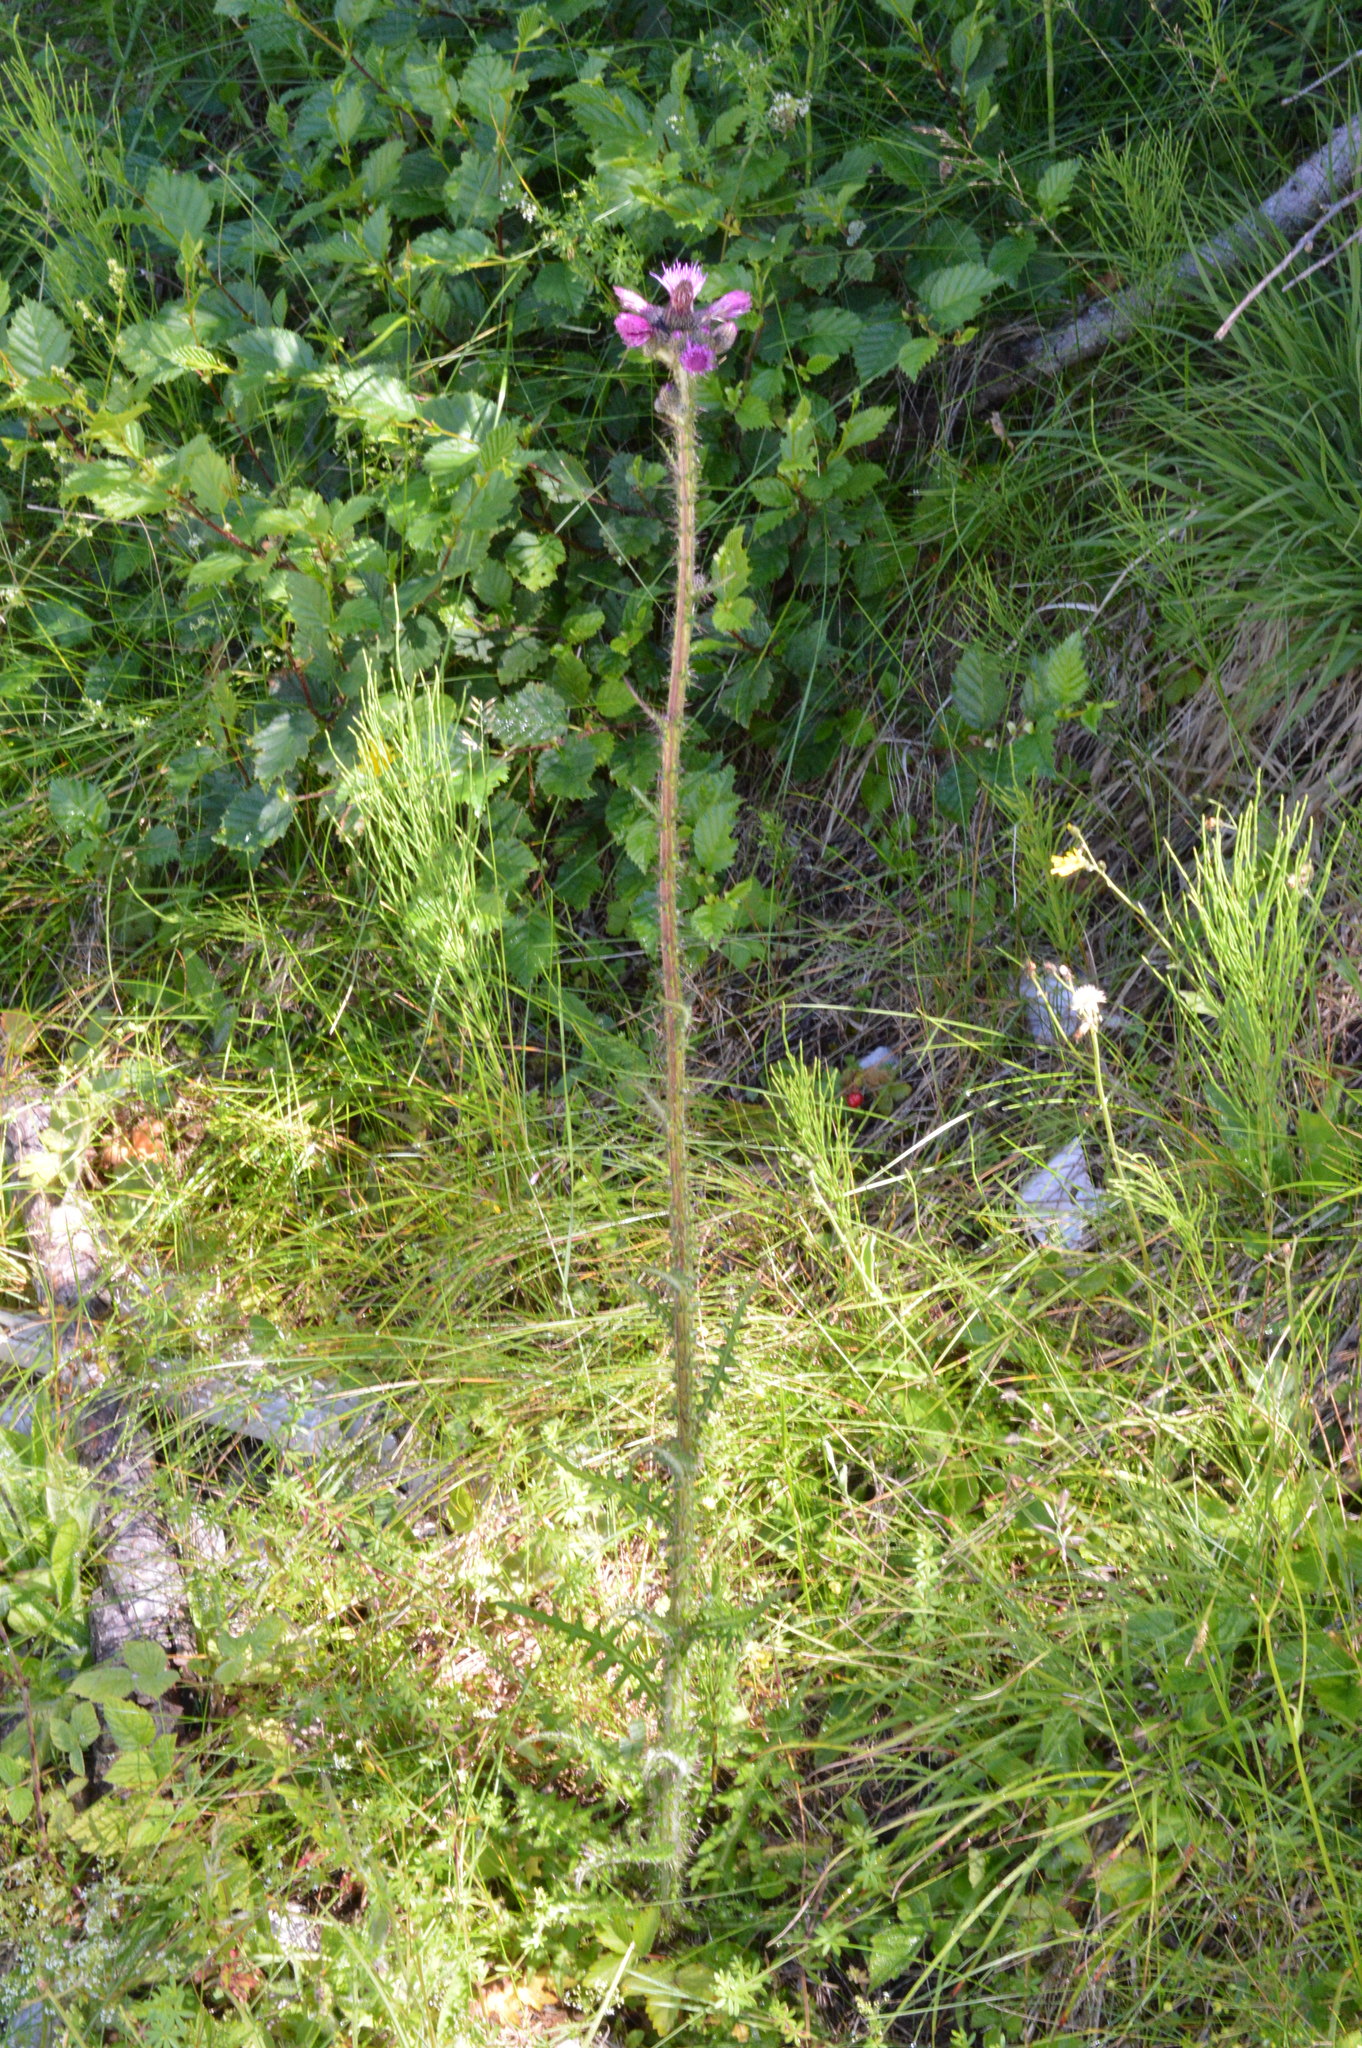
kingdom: Plantae
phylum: Tracheophyta
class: Magnoliopsida
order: Asterales
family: Asteraceae
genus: Cirsium
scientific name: Cirsium palustre
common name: Marsh thistle
